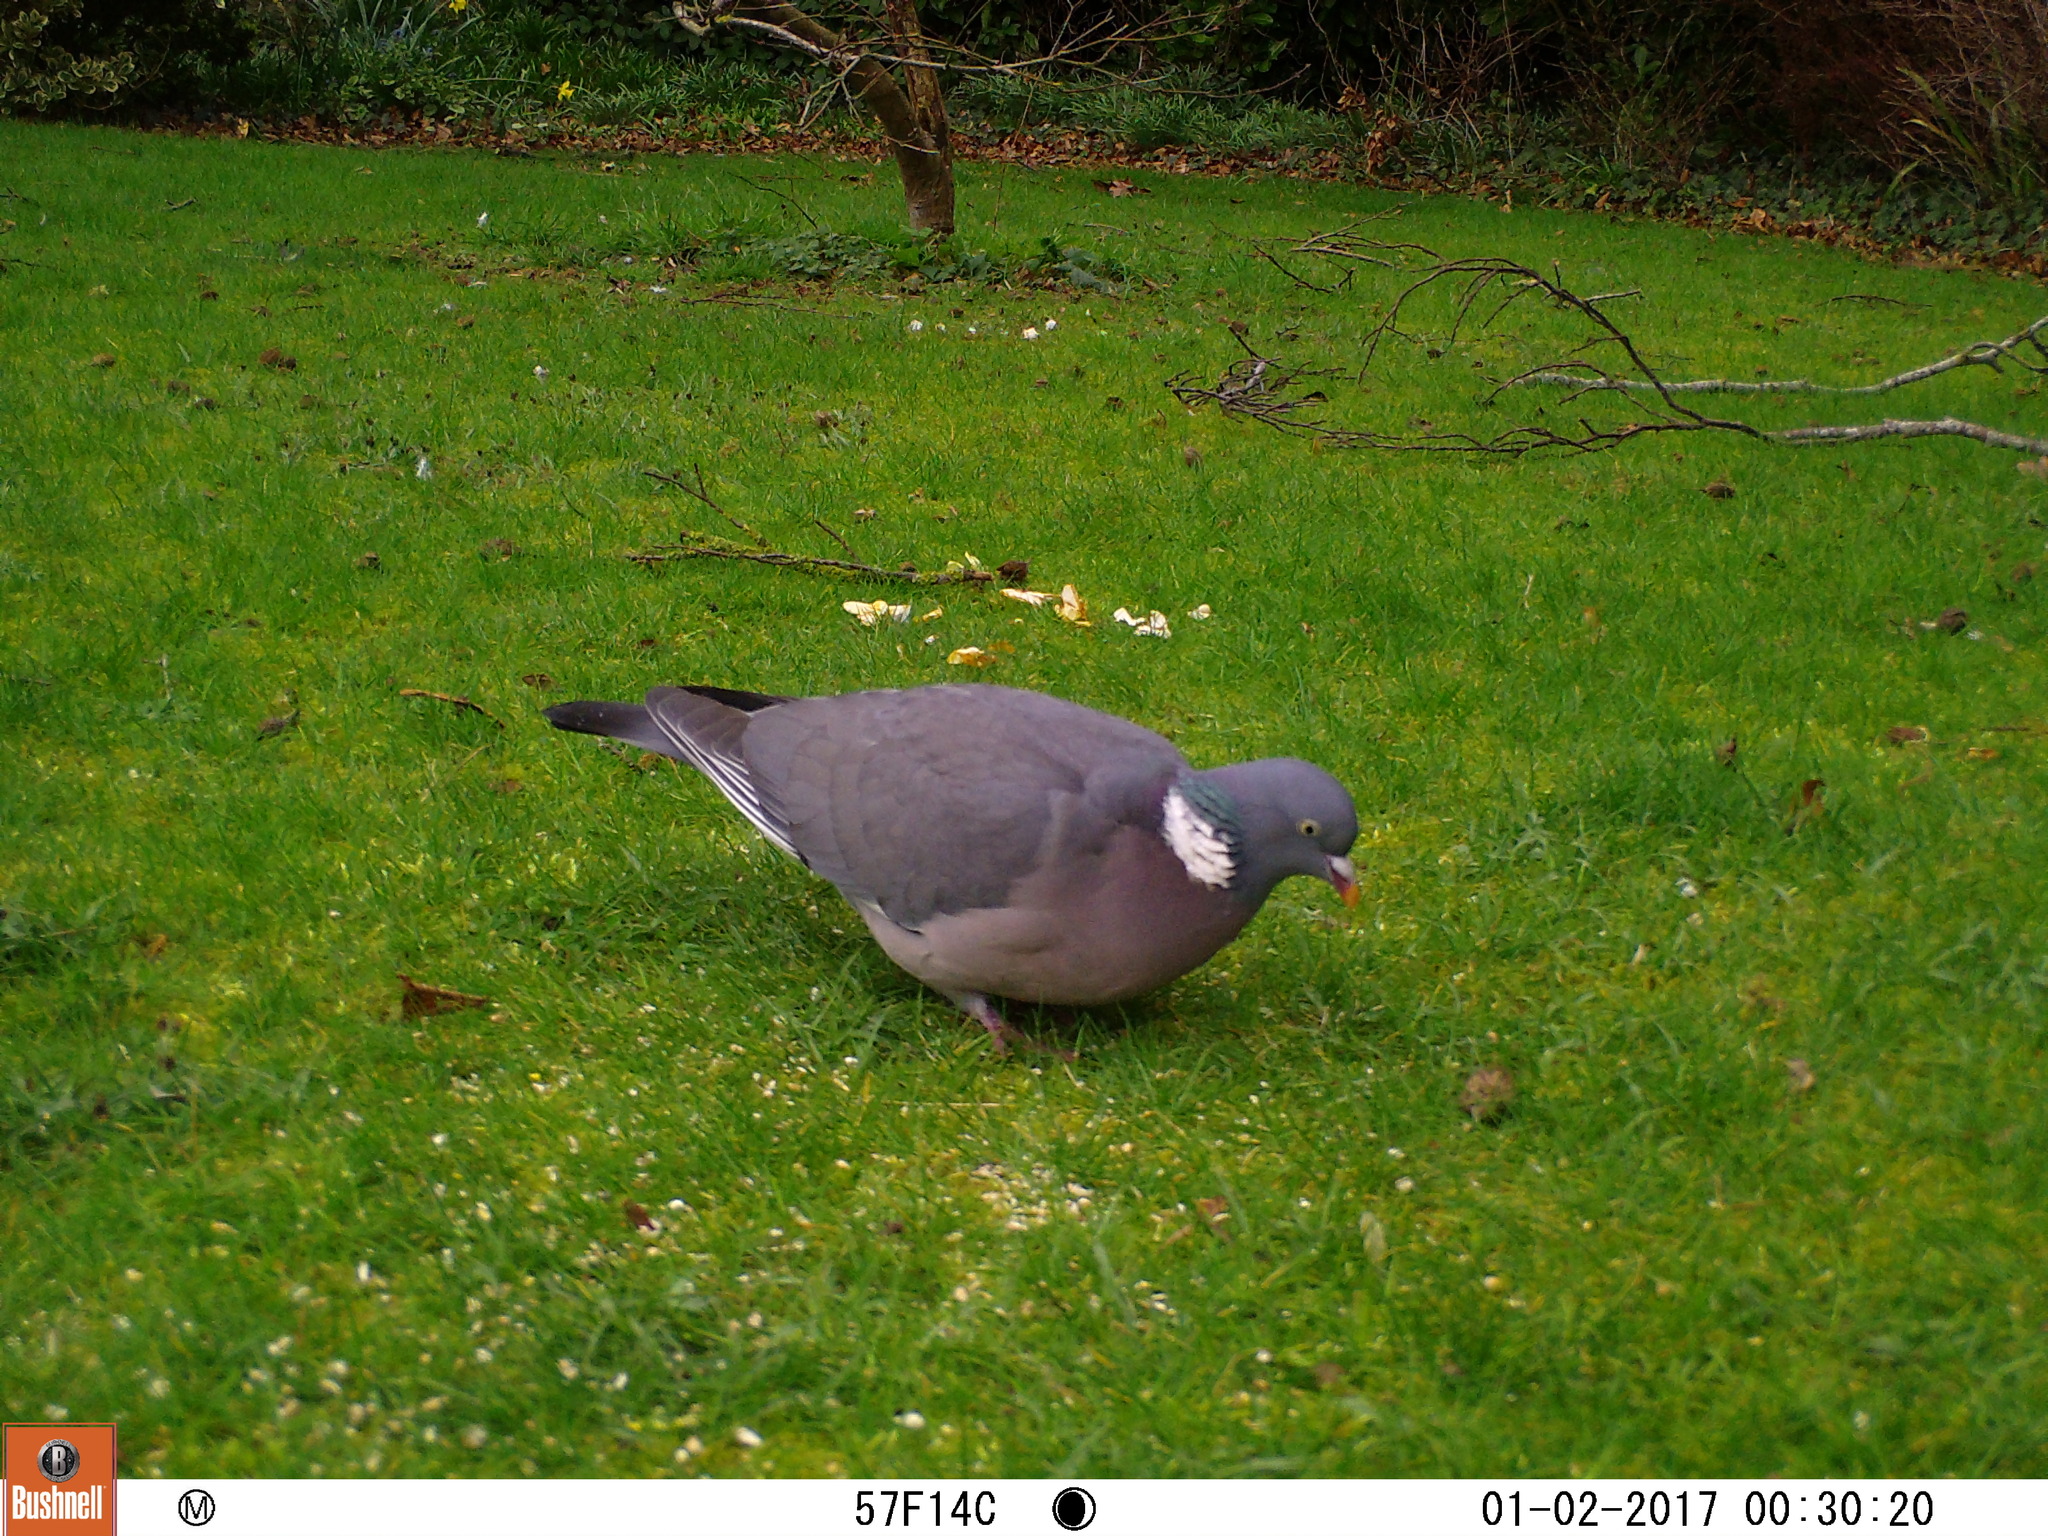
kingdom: Animalia
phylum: Chordata
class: Aves
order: Columbiformes
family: Columbidae
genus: Columba
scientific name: Columba palumbus
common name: Common wood pigeon
